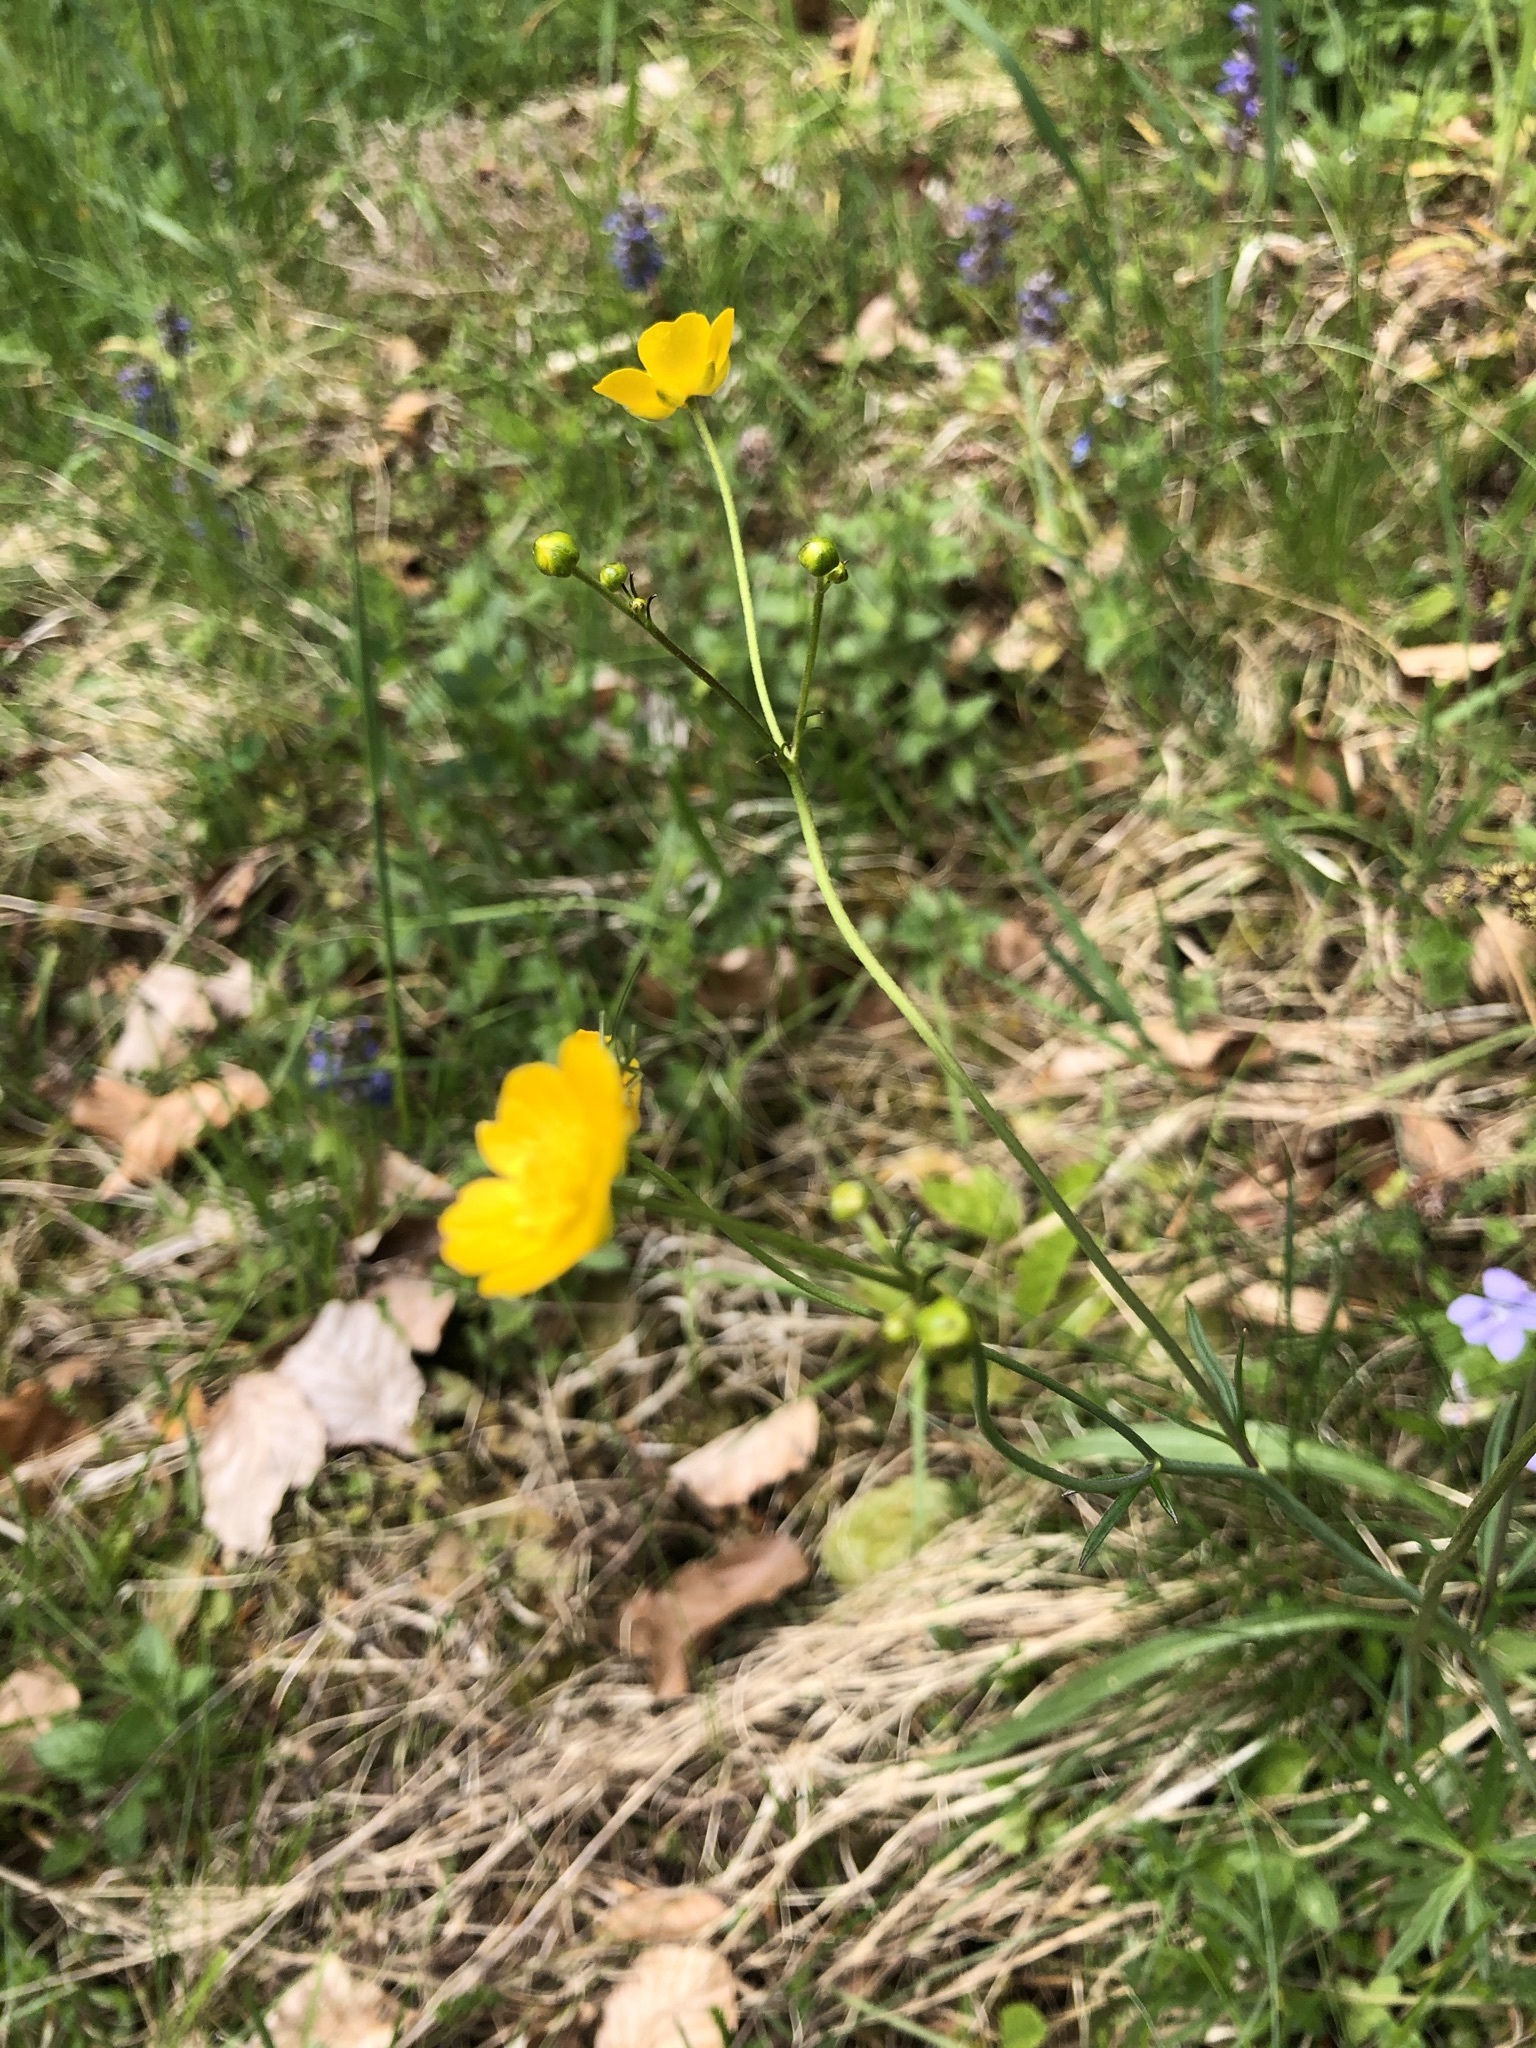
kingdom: Plantae
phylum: Tracheophyta
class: Magnoliopsida
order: Ranunculales
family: Ranunculaceae
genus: Ranunculus
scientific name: Ranunculus acris
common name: Meadow buttercup
